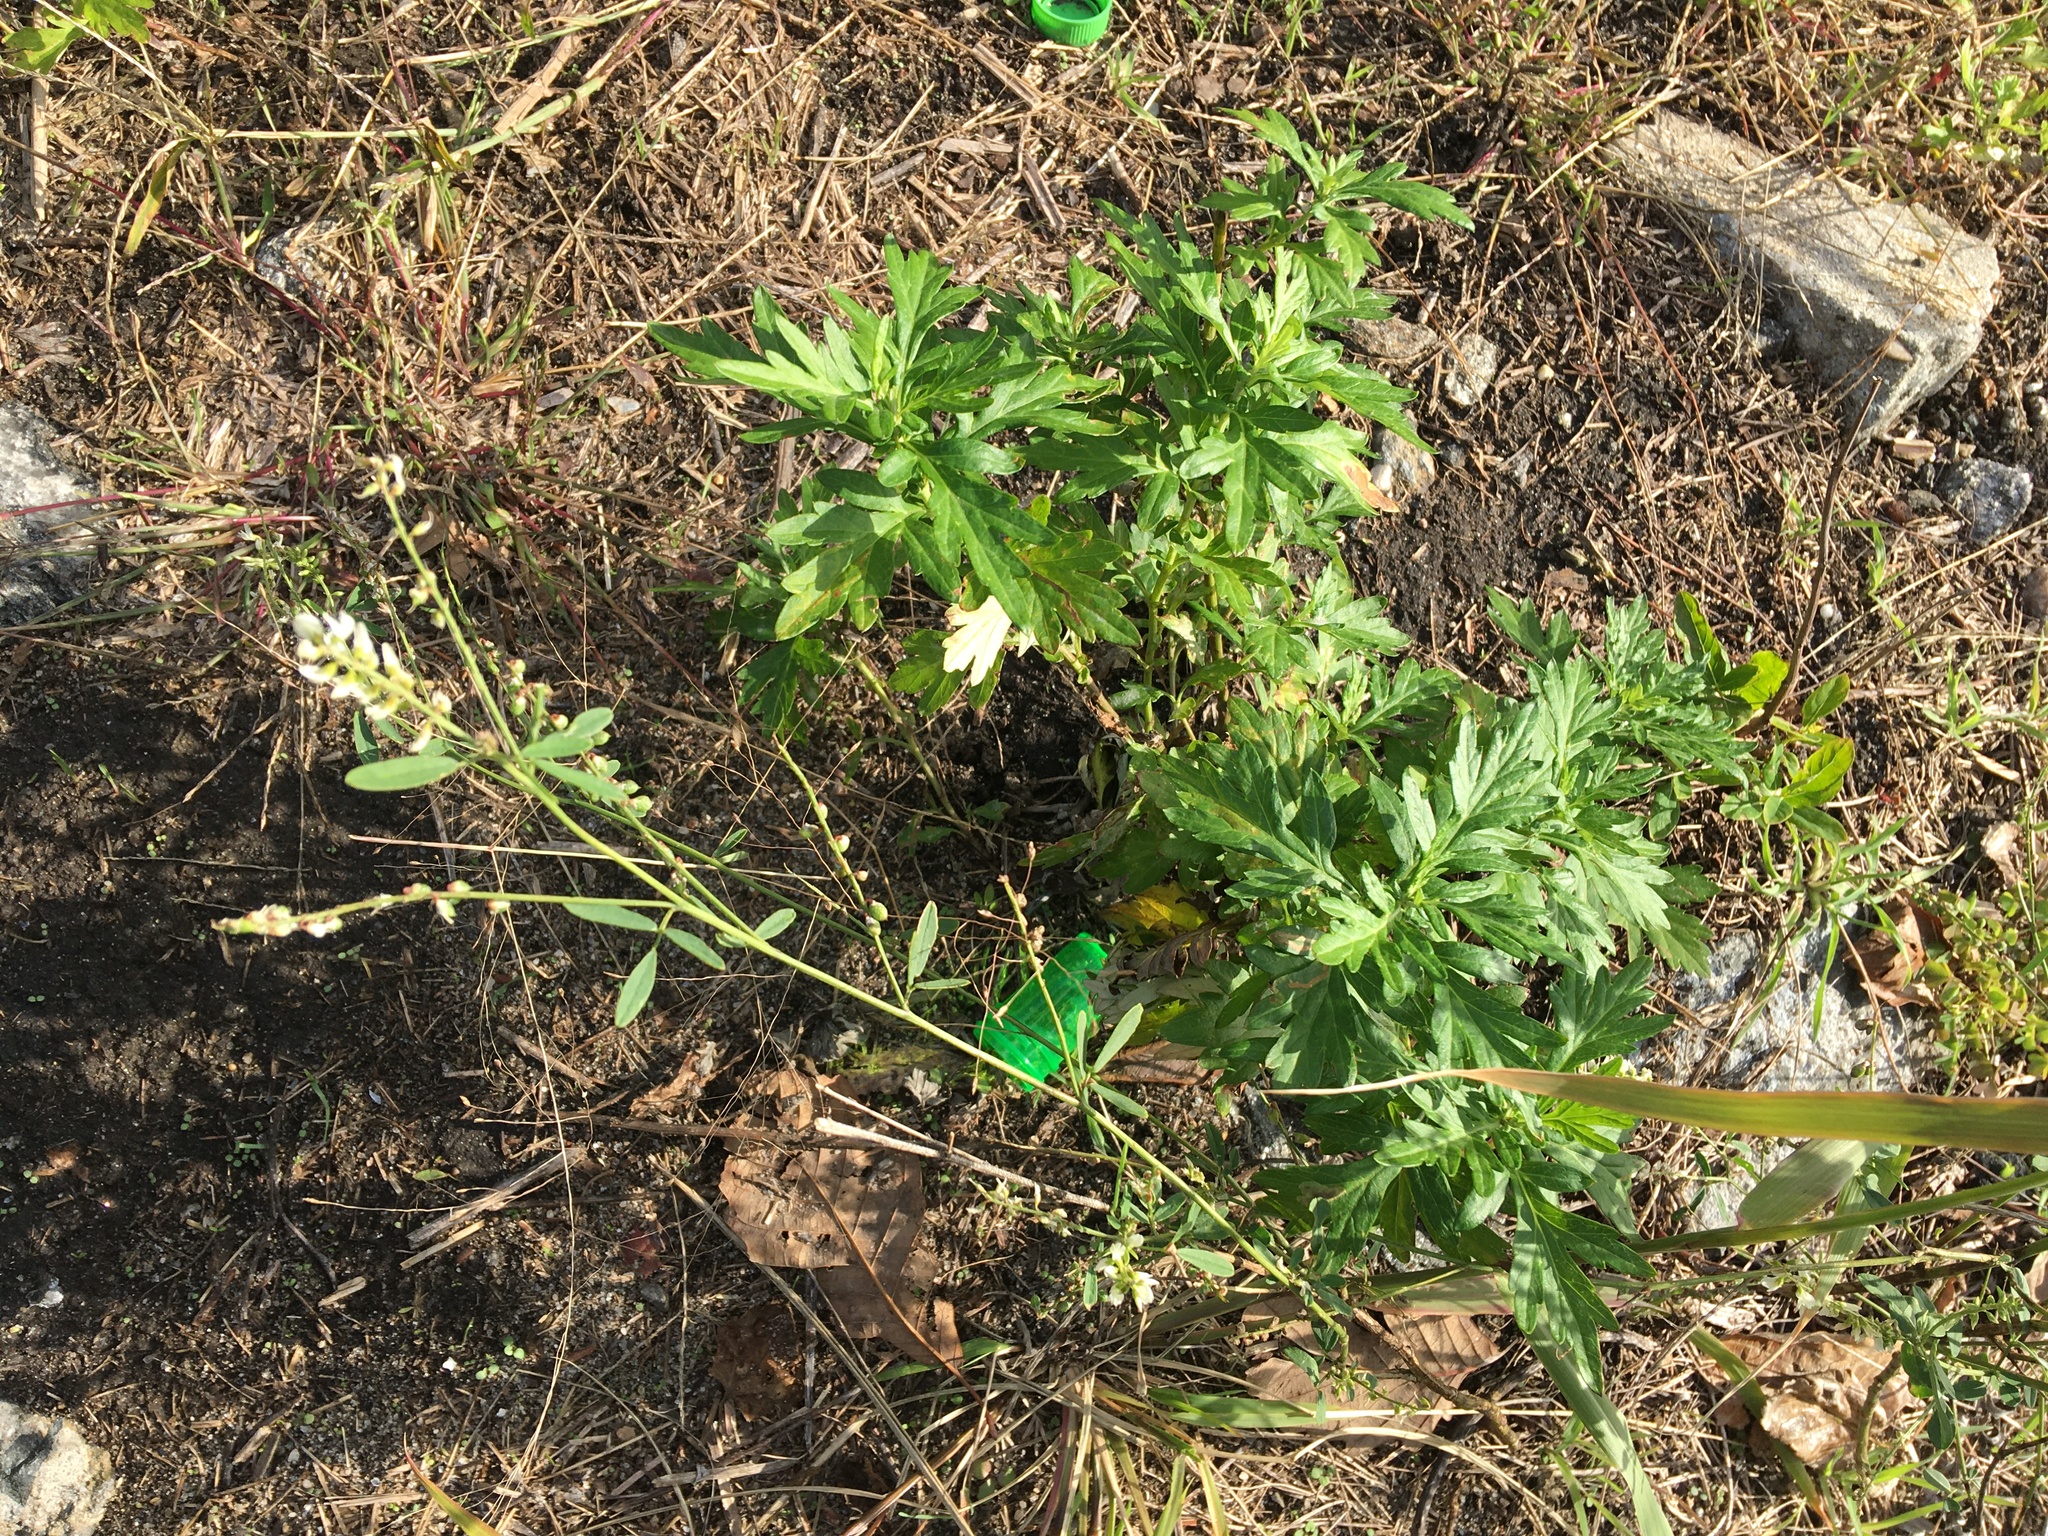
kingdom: Plantae
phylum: Tracheophyta
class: Magnoliopsida
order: Asterales
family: Asteraceae
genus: Artemisia
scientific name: Artemisia vulgaris
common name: Mugwort
